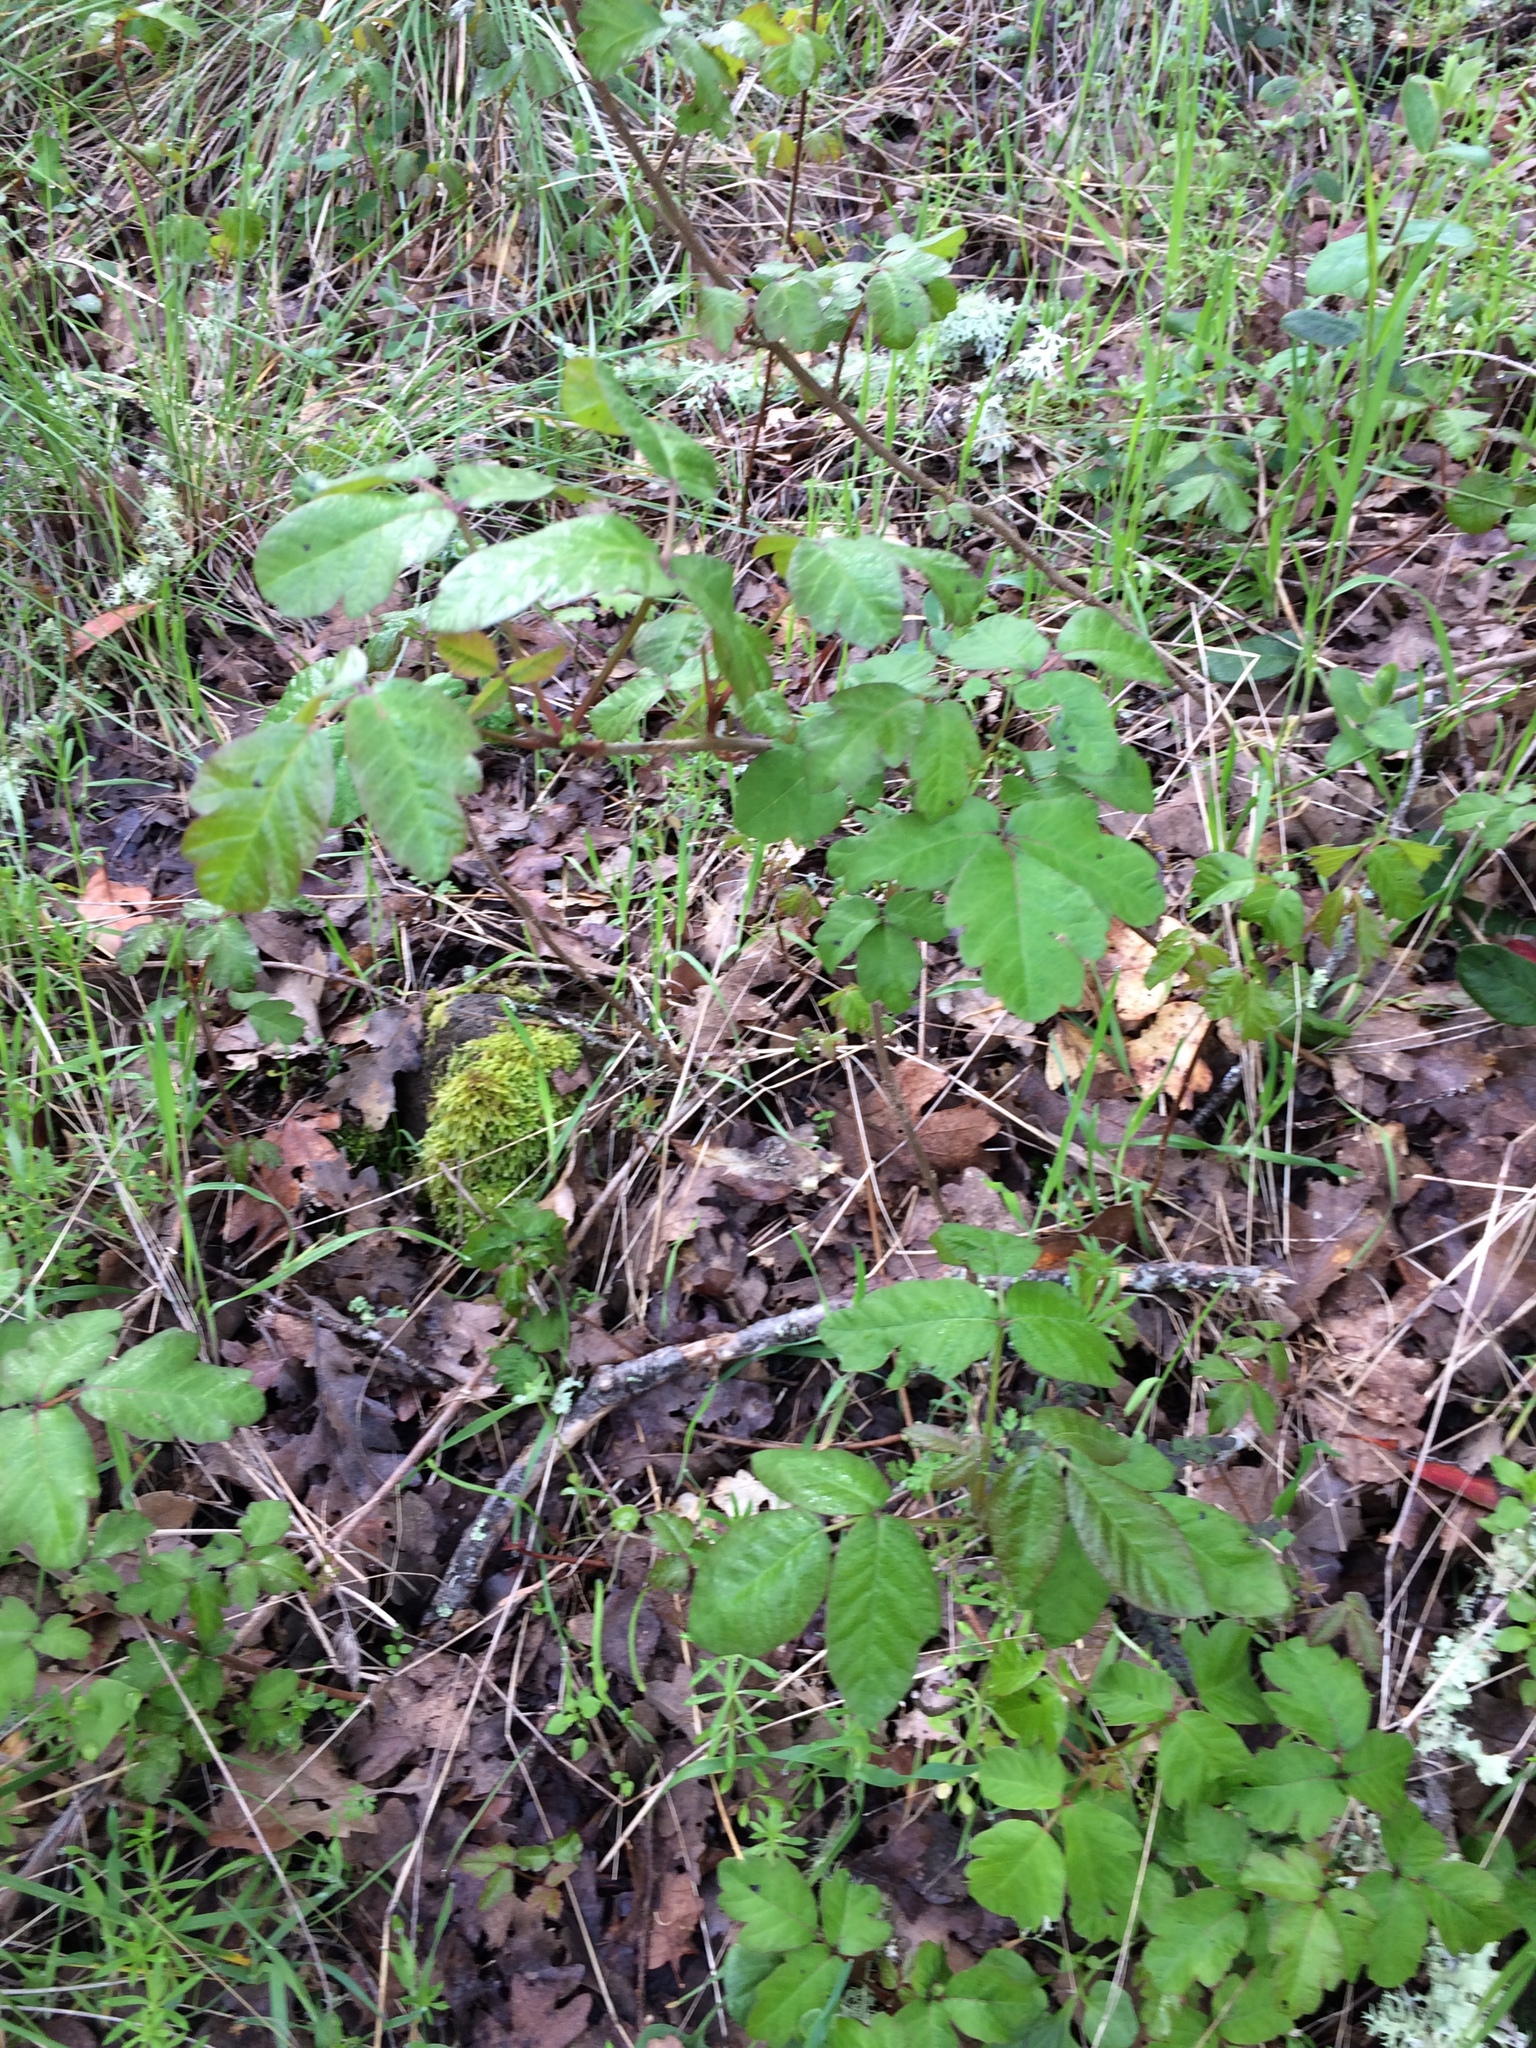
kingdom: Plantae
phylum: Tracheophyta
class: Magnoliopsida
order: Sapindales
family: Anacardiaceae
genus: Toxicodendron
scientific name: Toxicodendron diversilobum
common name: Pacific poison-oak
